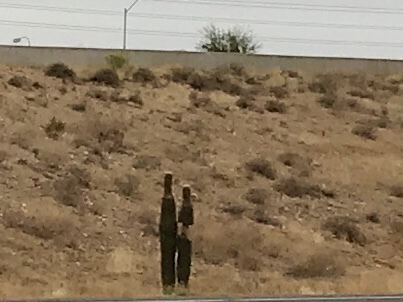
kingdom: Plantae
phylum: Tracheophyta
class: Magnoliopsida
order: Caryophyllales
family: Cactaceae
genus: Carnegiea
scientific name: Carnegiea gigantea
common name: Saguaro
